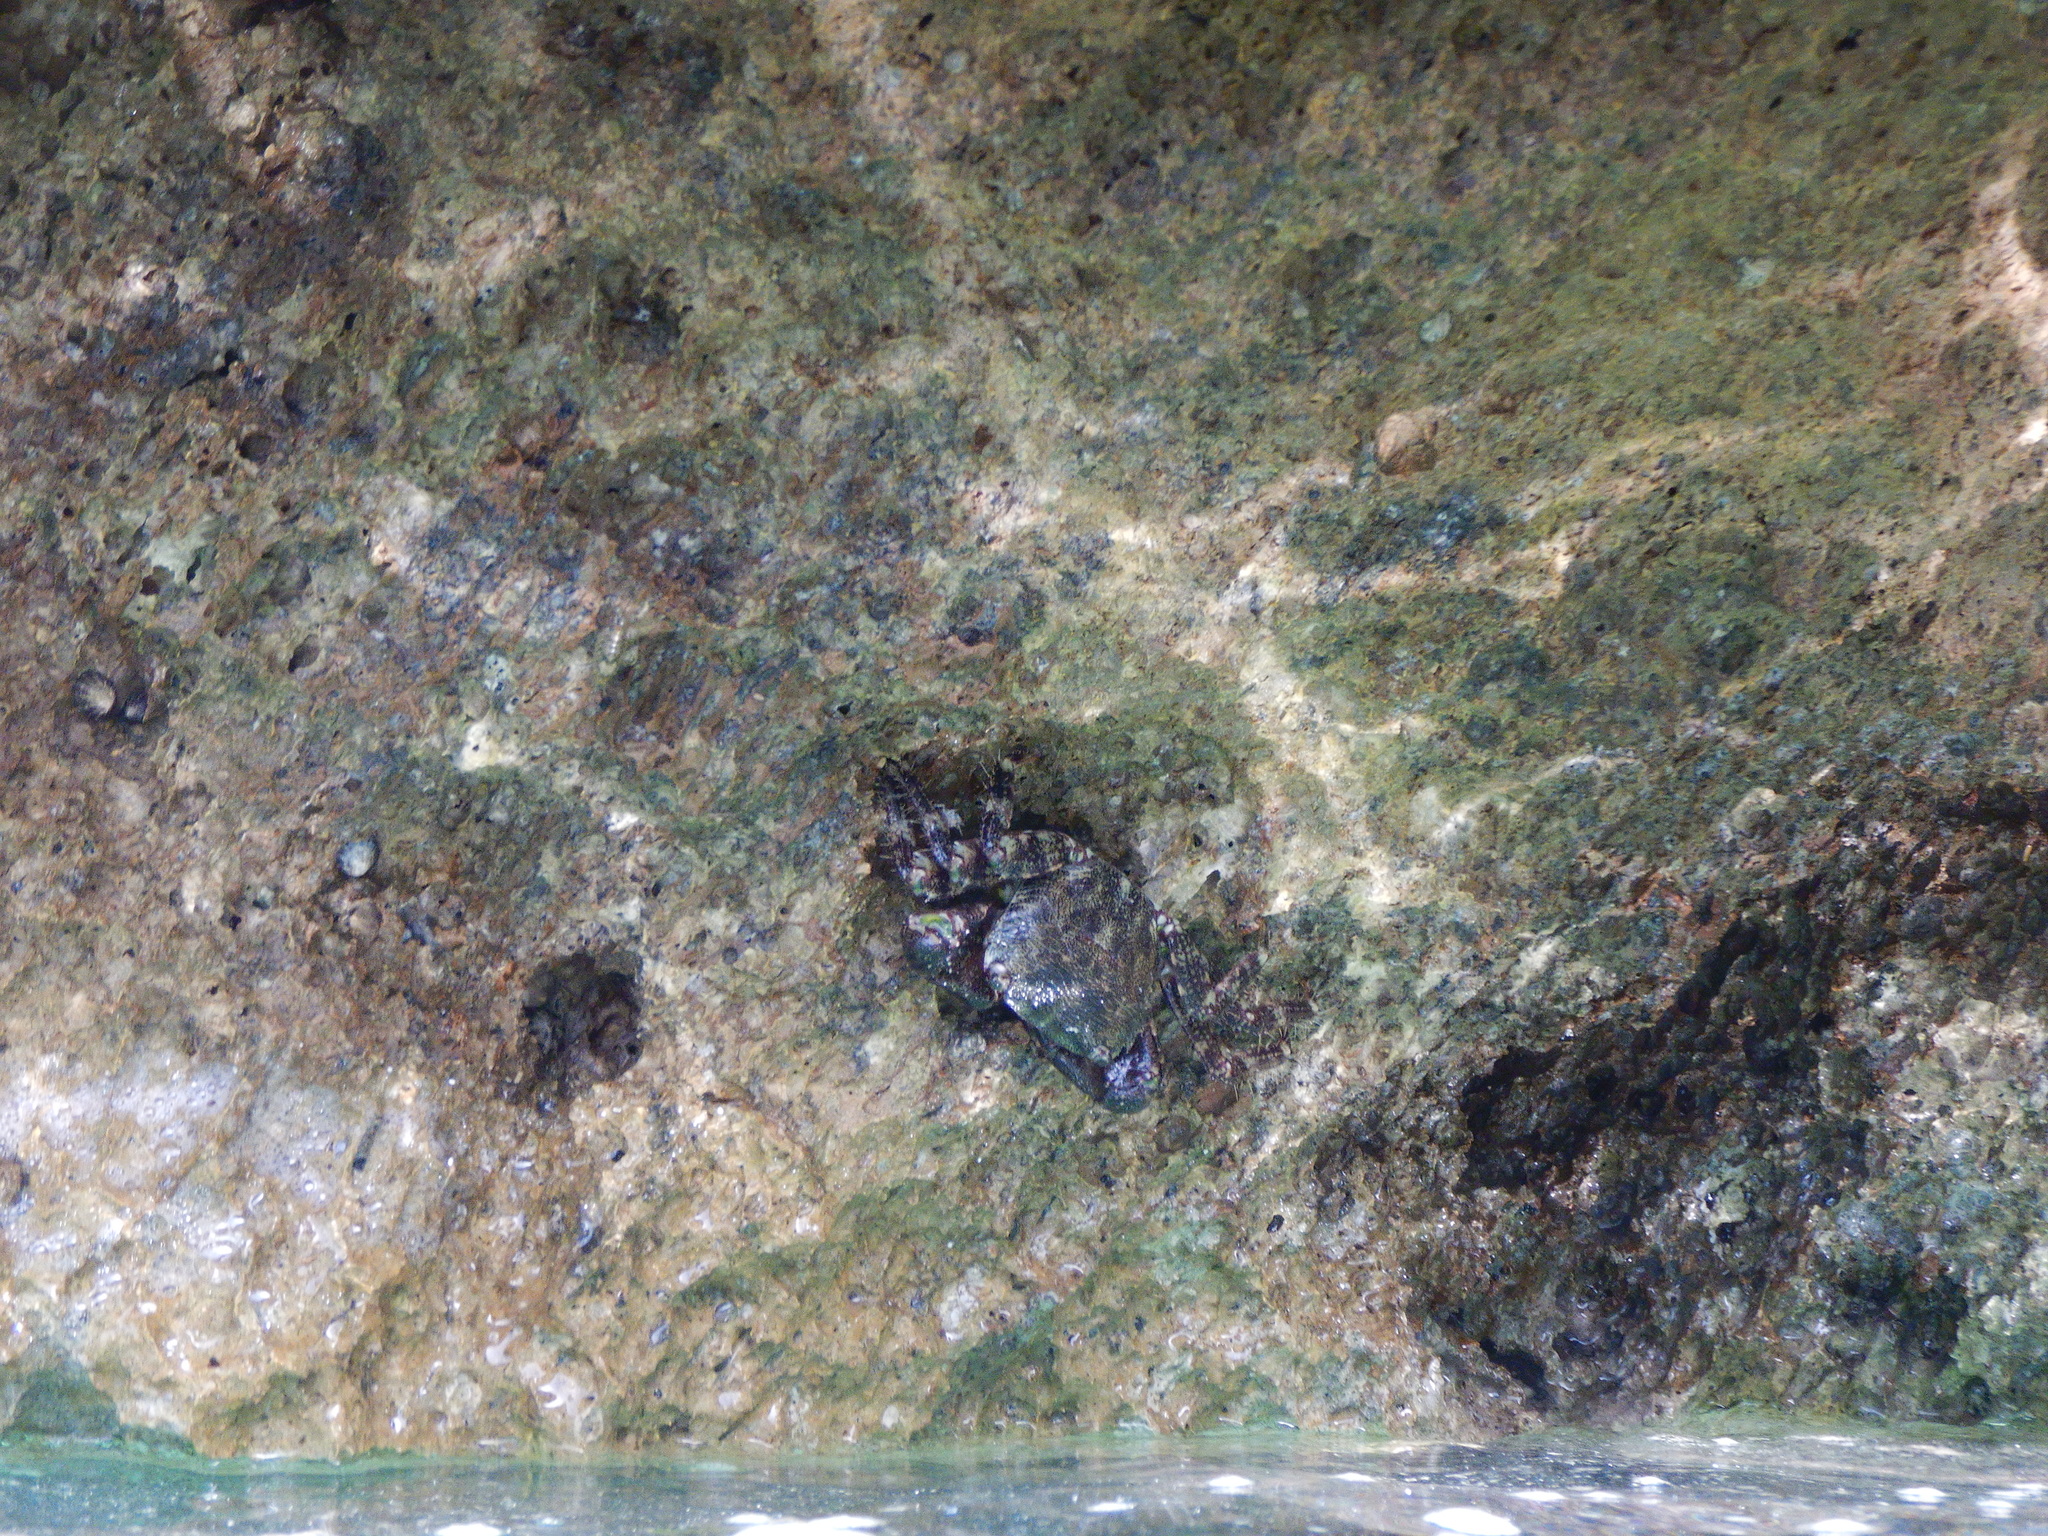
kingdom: Animalia
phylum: Arthropoda
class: Malacostraca
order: Decapoda
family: Grapsidae
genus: Pachygrapsus
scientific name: Pachygrapsus marmoratus
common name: Marbled rock crab
